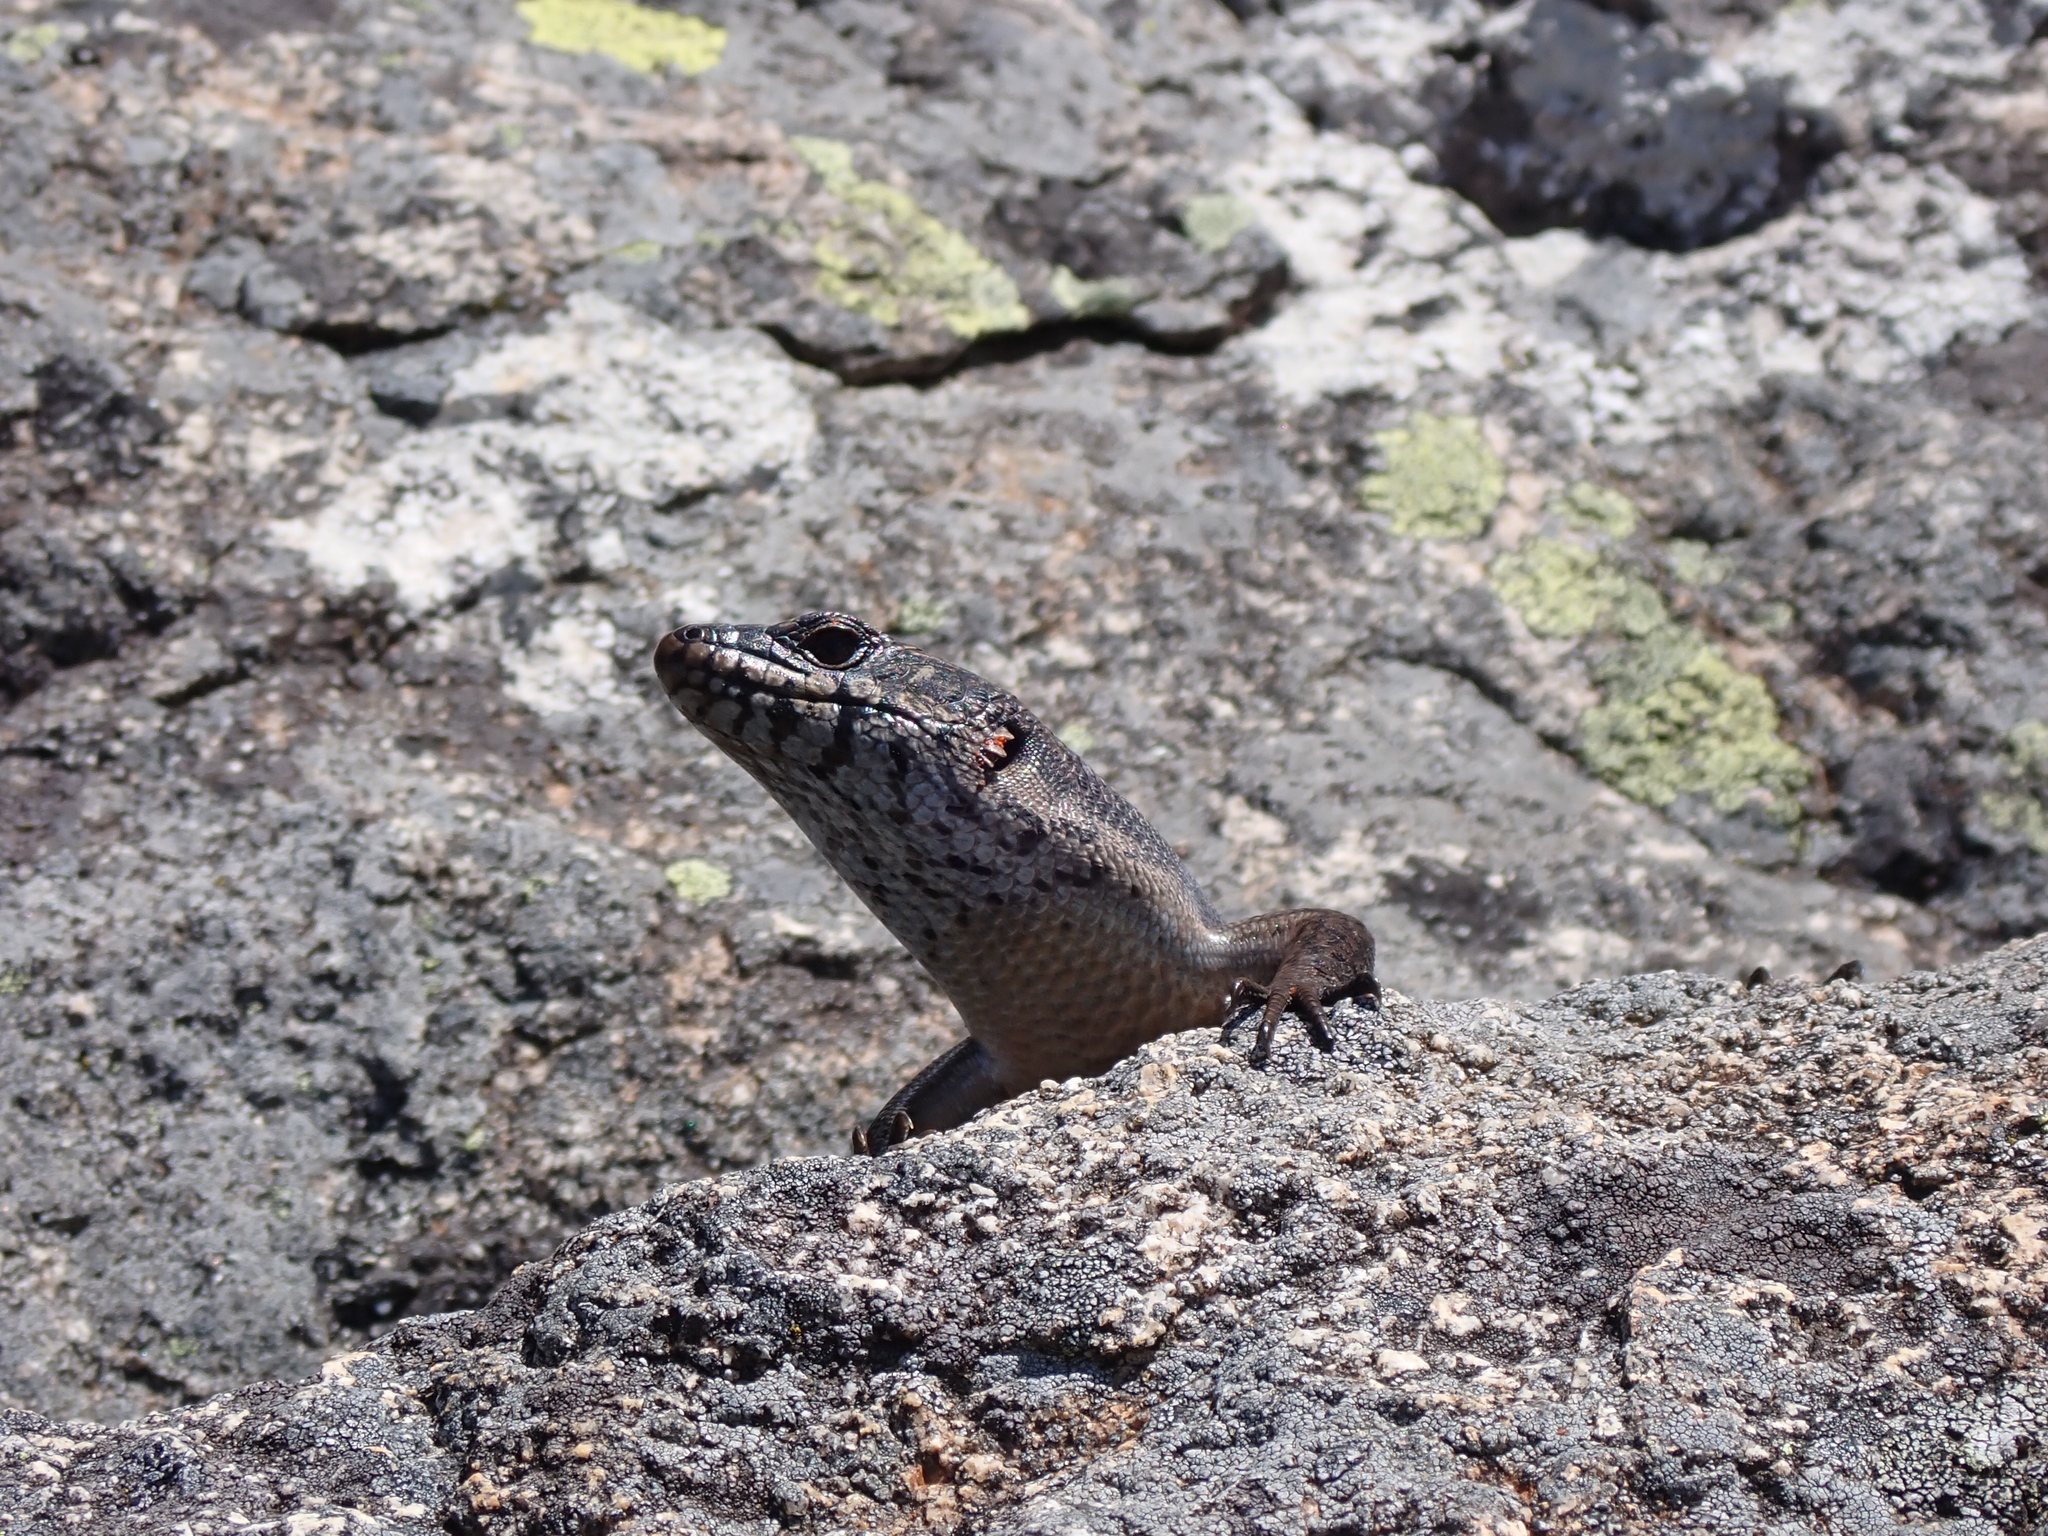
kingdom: Animalia
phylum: Chordata
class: Squamata
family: Scincidae
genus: Egernia
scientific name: Egernia saxatilis
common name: Black crevice-skink
